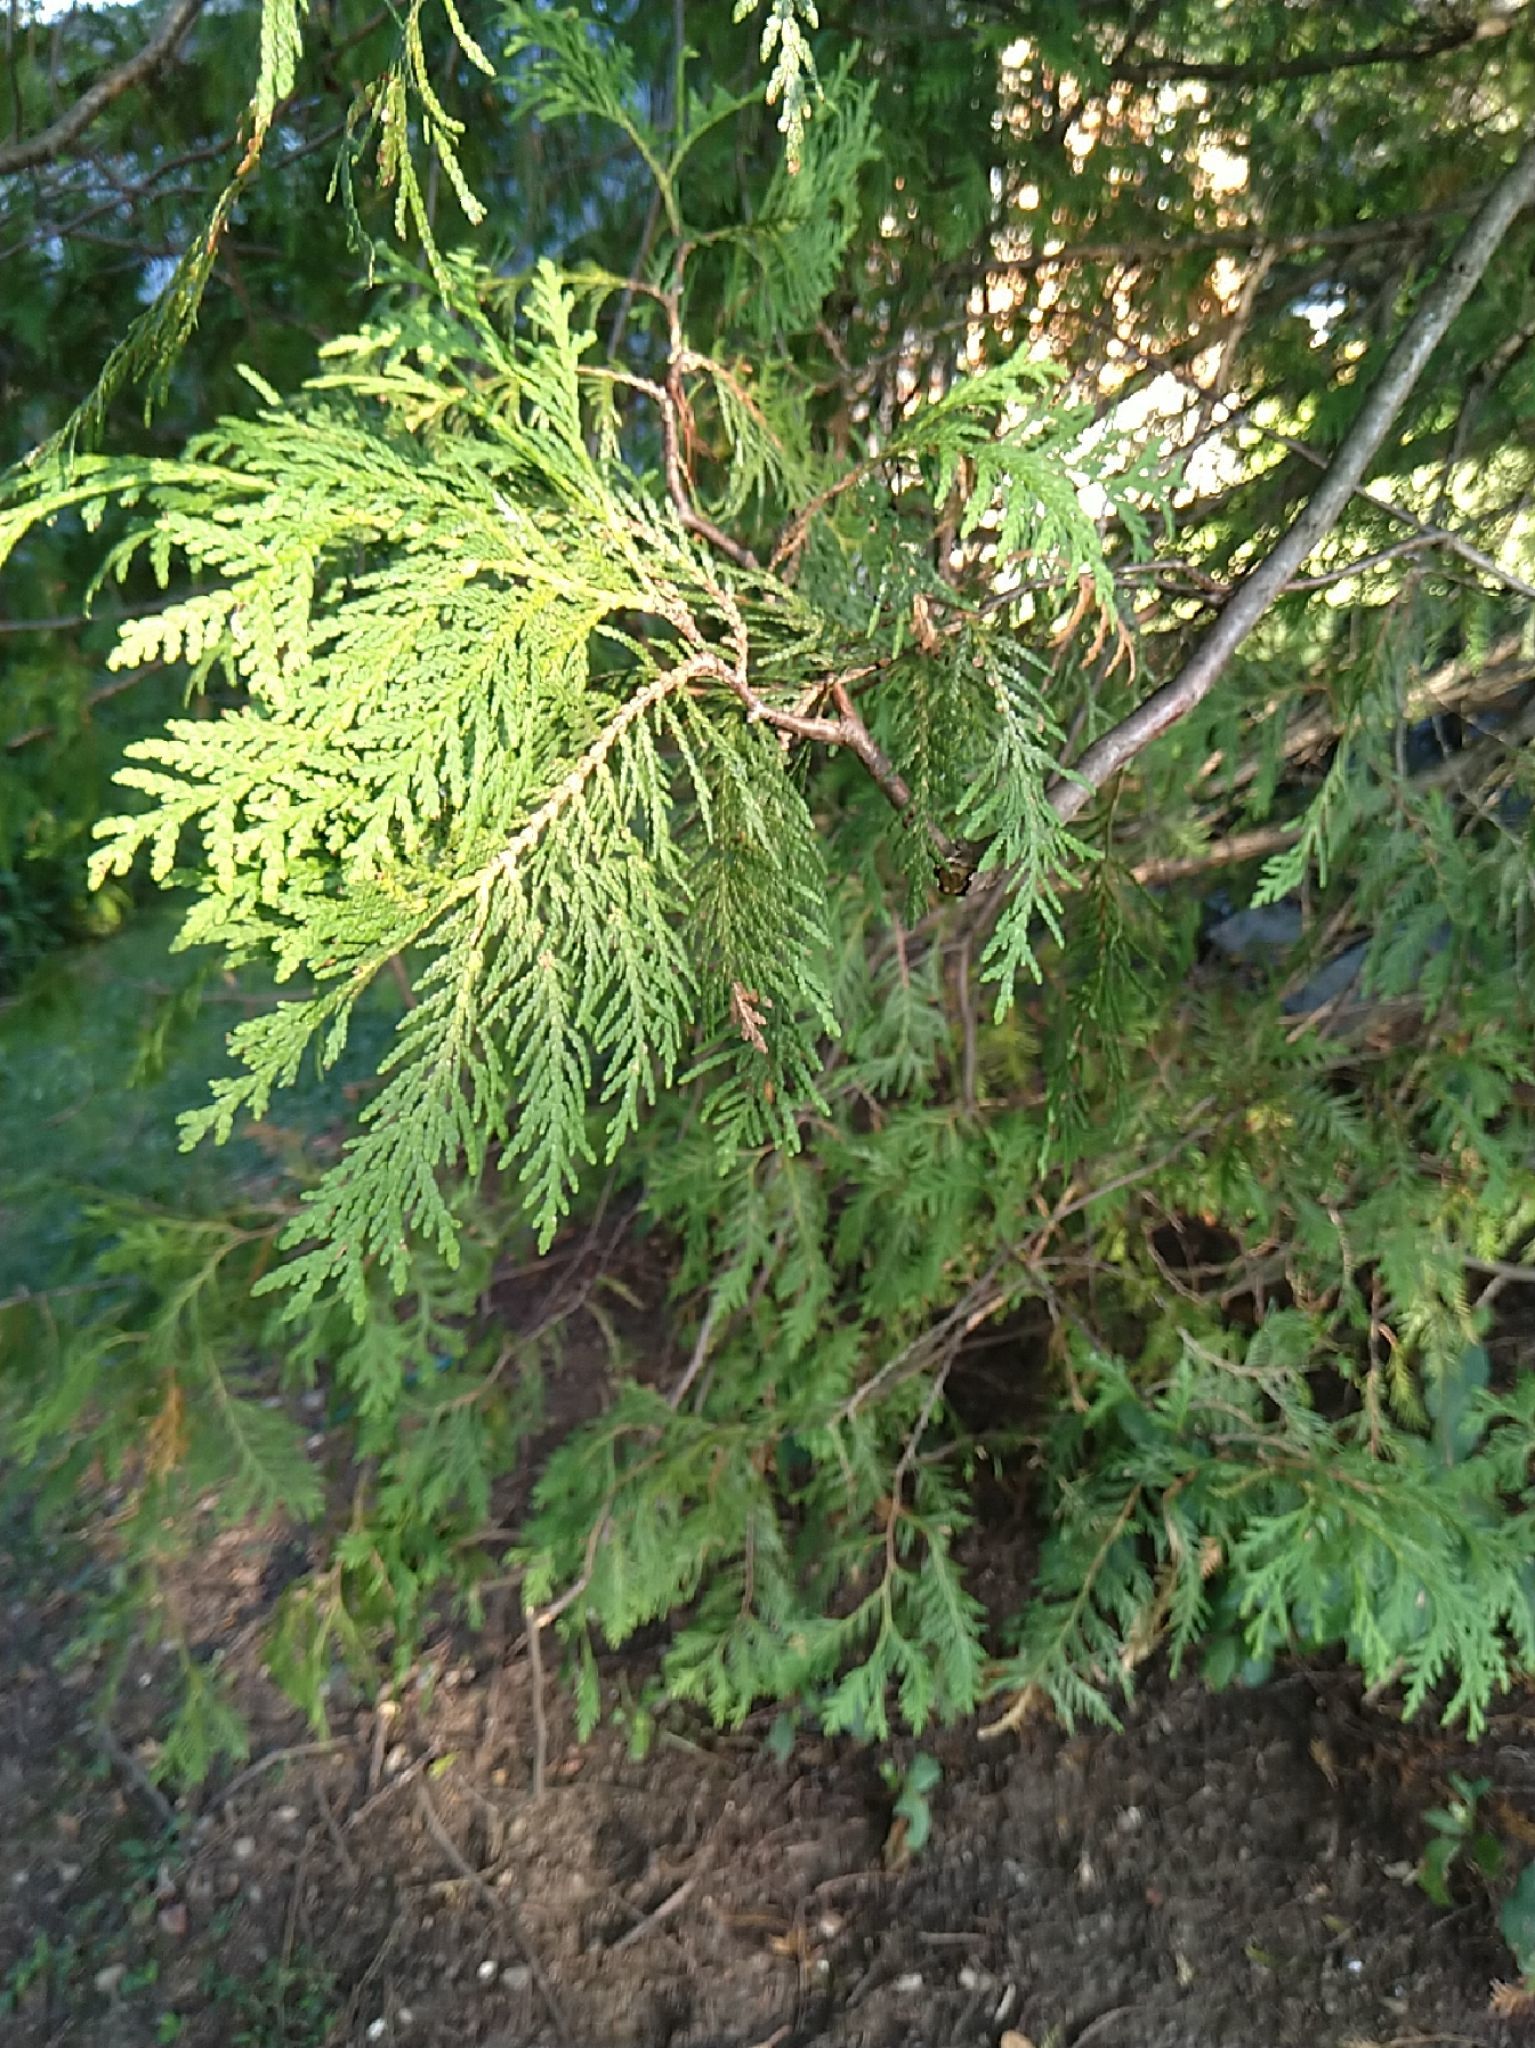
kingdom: Plantae
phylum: Tracheophyta
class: Pinopsida
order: Pinales
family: Cupressaceae
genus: Thuja
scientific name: Thuja occidentalis
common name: Northern white-cedar
